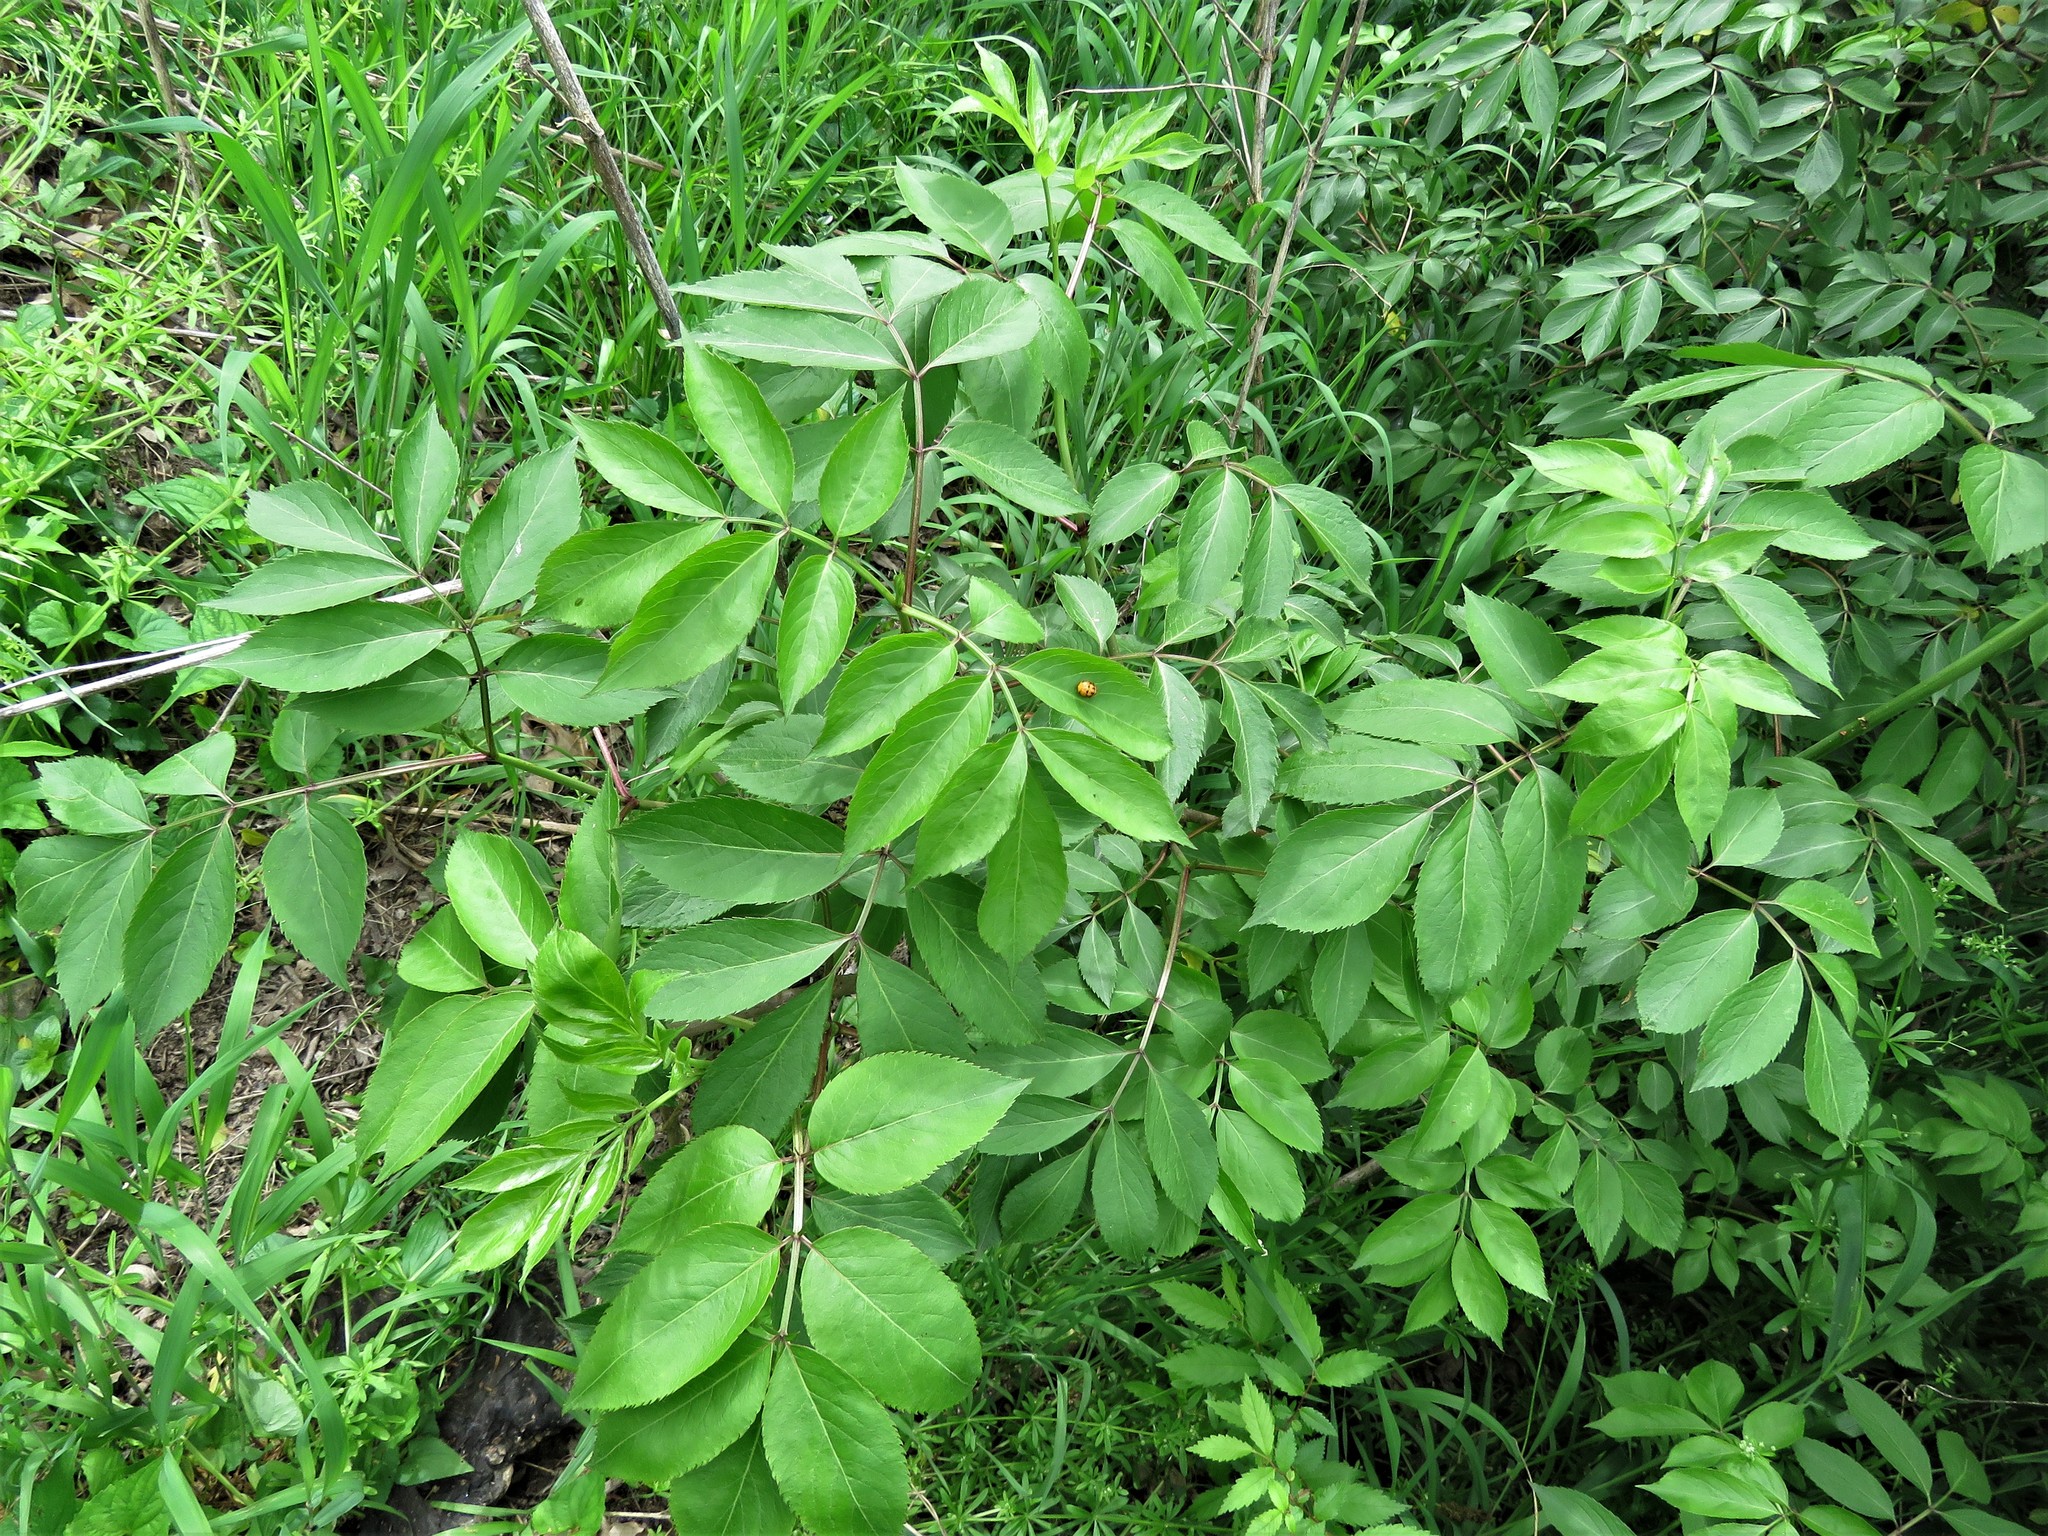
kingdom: Plantae
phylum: Tracheophyta
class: Magnoliopsida
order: Dipsacales
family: Viburnaceae
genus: Sambucus
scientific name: Sambucus canadensis
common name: American elder
